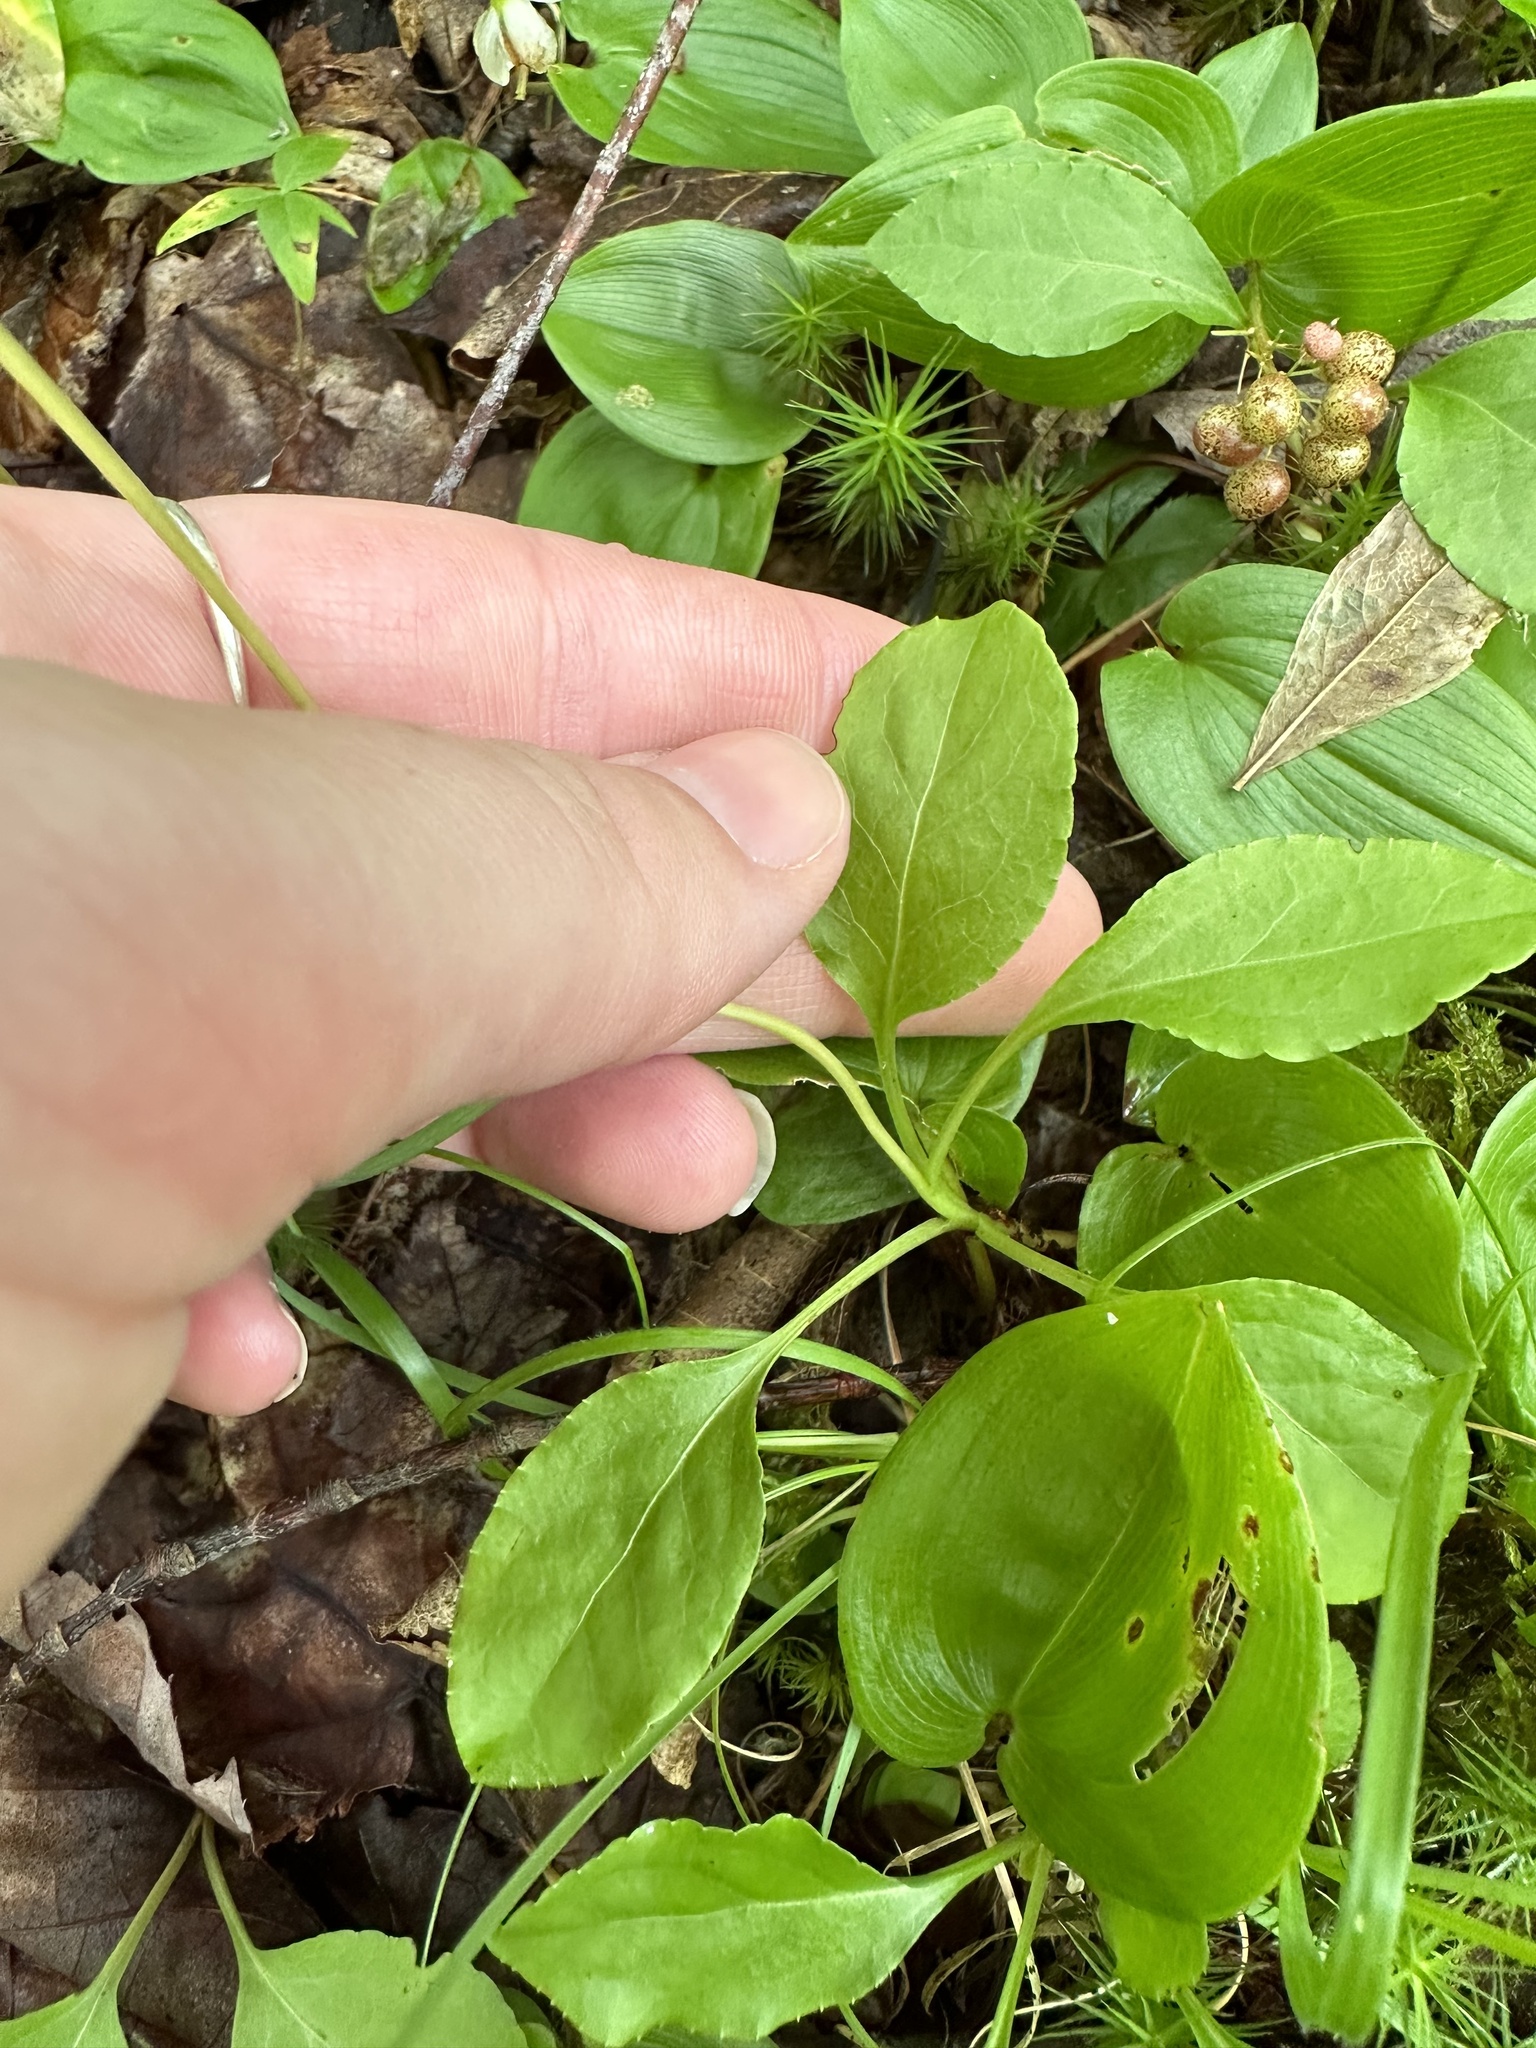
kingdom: Plantae
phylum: Tracheophyta
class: Magnoliopsida
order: Ericales
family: Ericaceae
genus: Pyrola
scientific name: Pyrola elliptica
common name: Shinleaf
